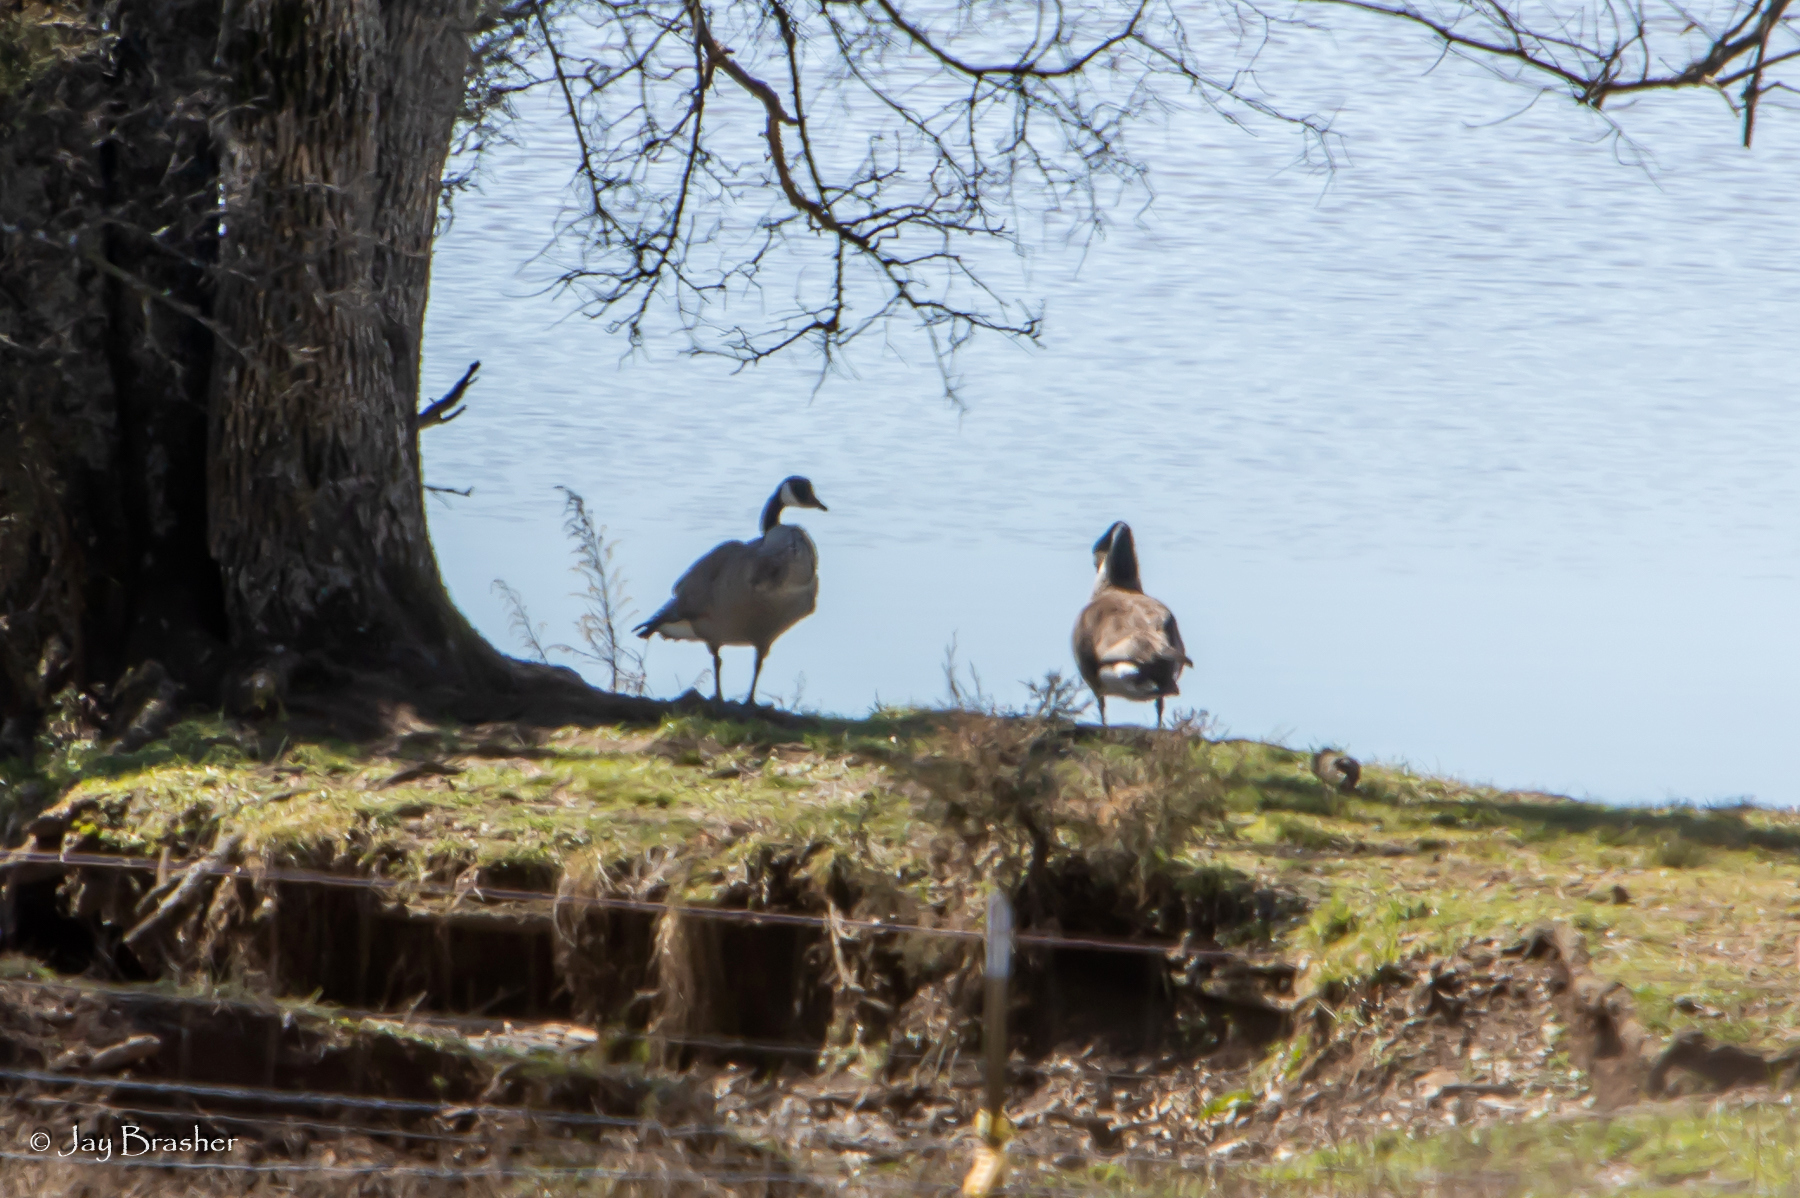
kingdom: Animalia
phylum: Chordata
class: Aves
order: Anseriformes
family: Anatidae
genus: Branta
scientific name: Branta canadensis
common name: Canada goose
